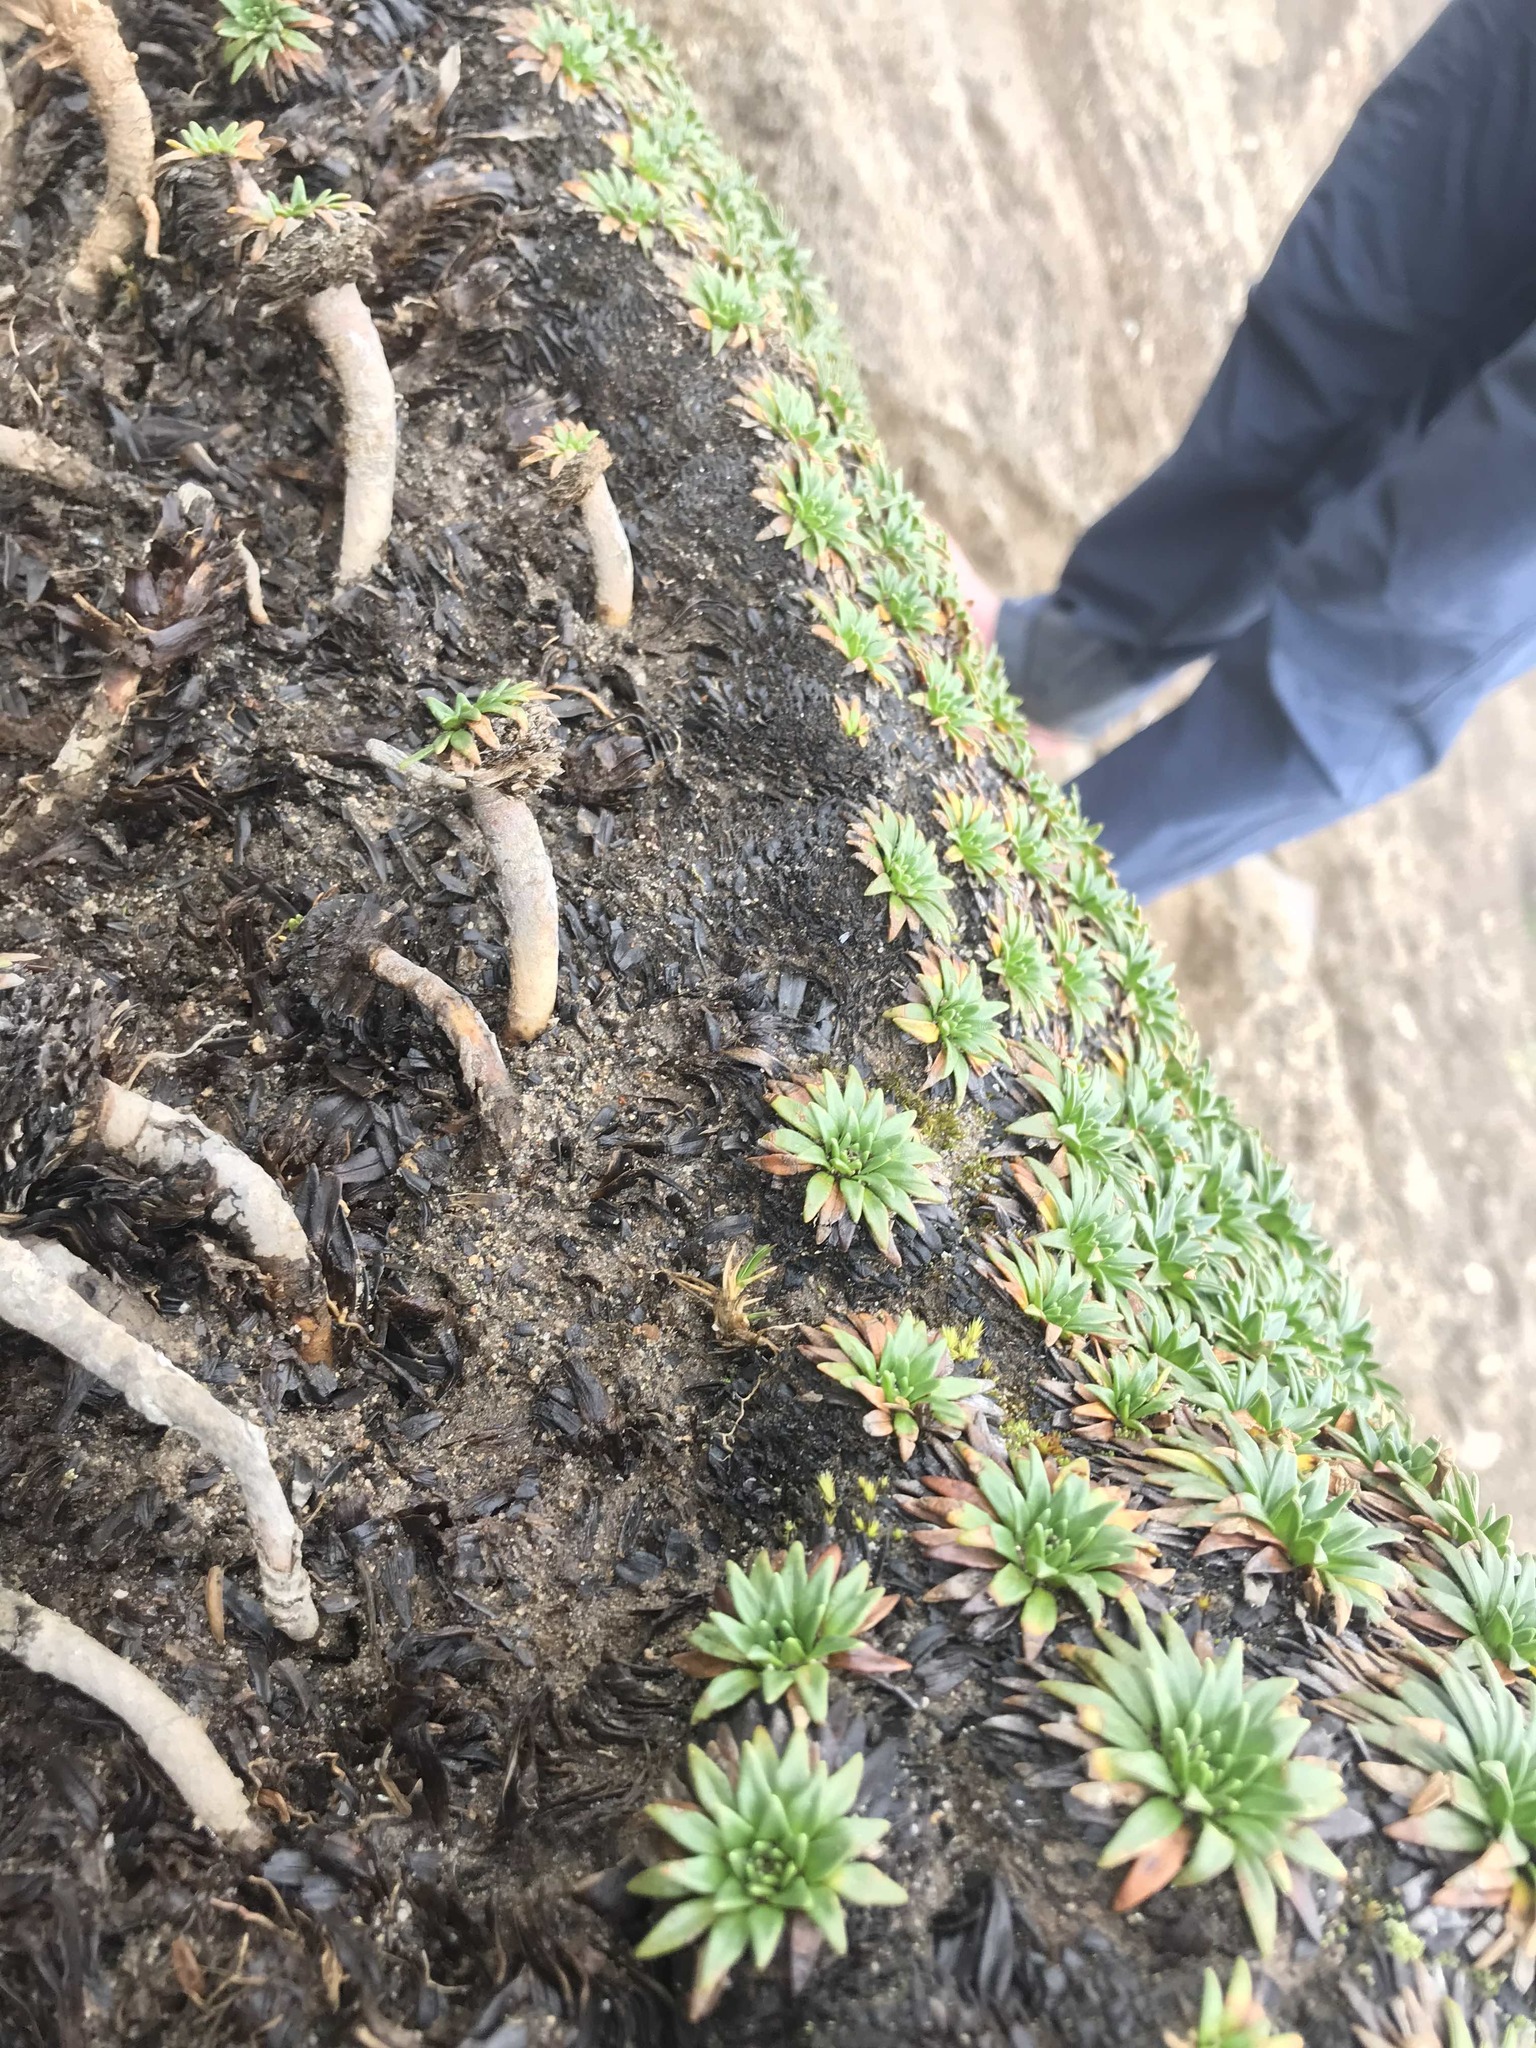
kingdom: Plantae
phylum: Tracheophyta
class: Magnoliopsida
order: Lamiales
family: Plantaginaceae
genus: Plantago
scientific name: Plantago rigida
